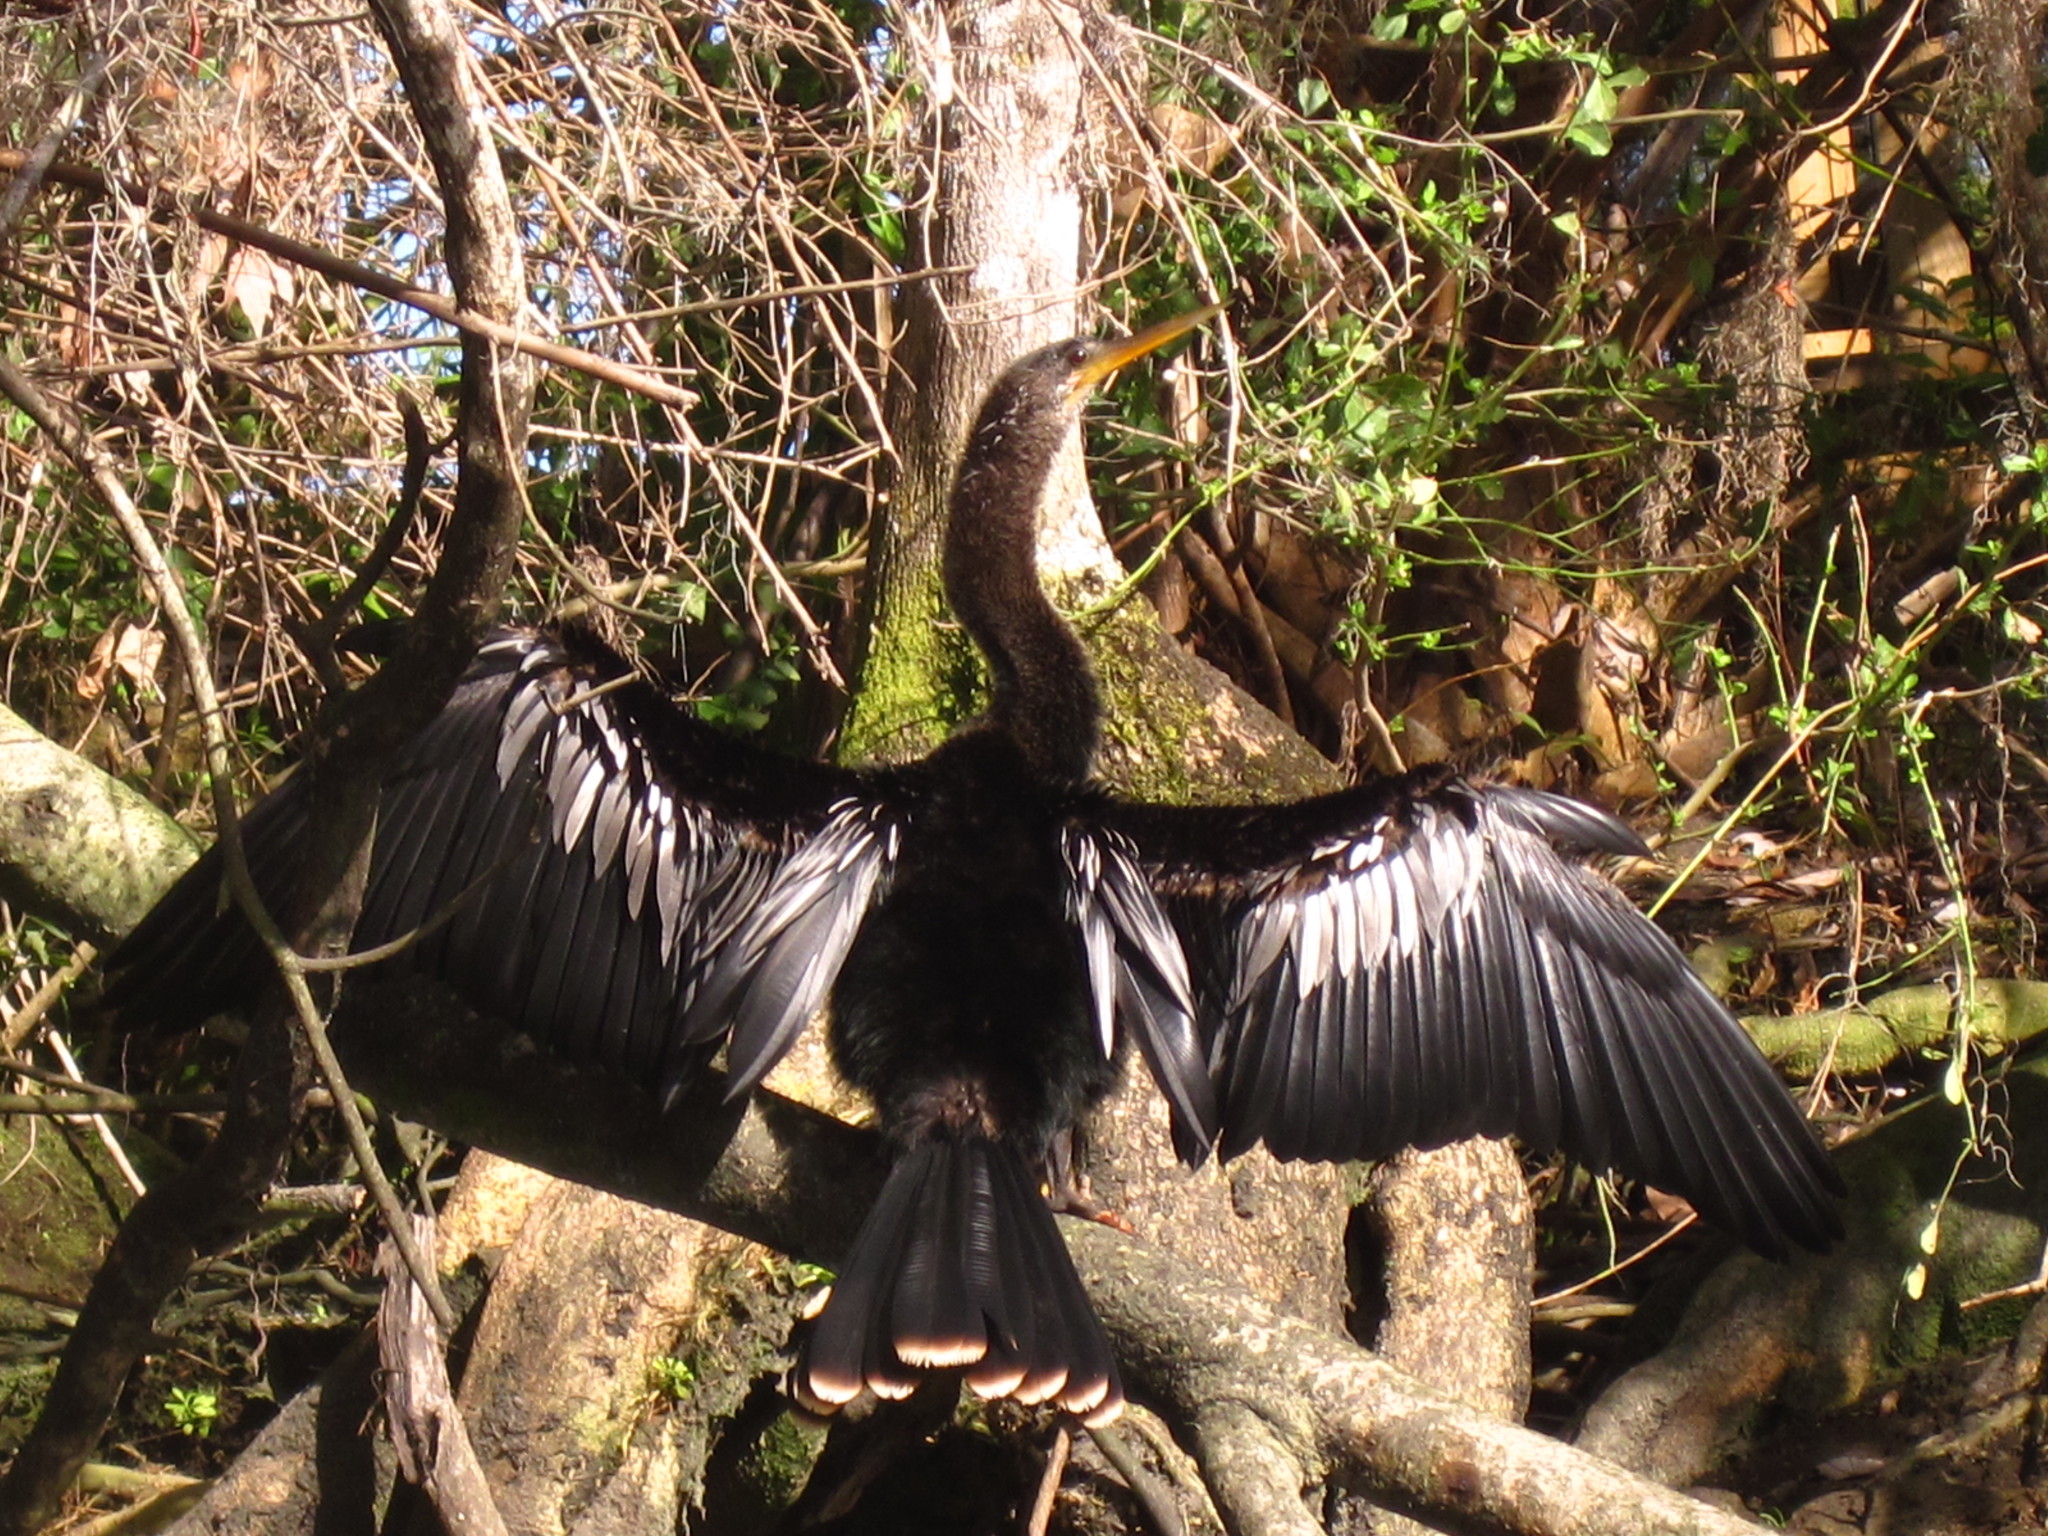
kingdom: Animalia
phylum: Chordata
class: Aves
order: Suliformes
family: Anhingidae
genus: Anhinga
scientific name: Anhinga anhinga
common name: Anhinga
